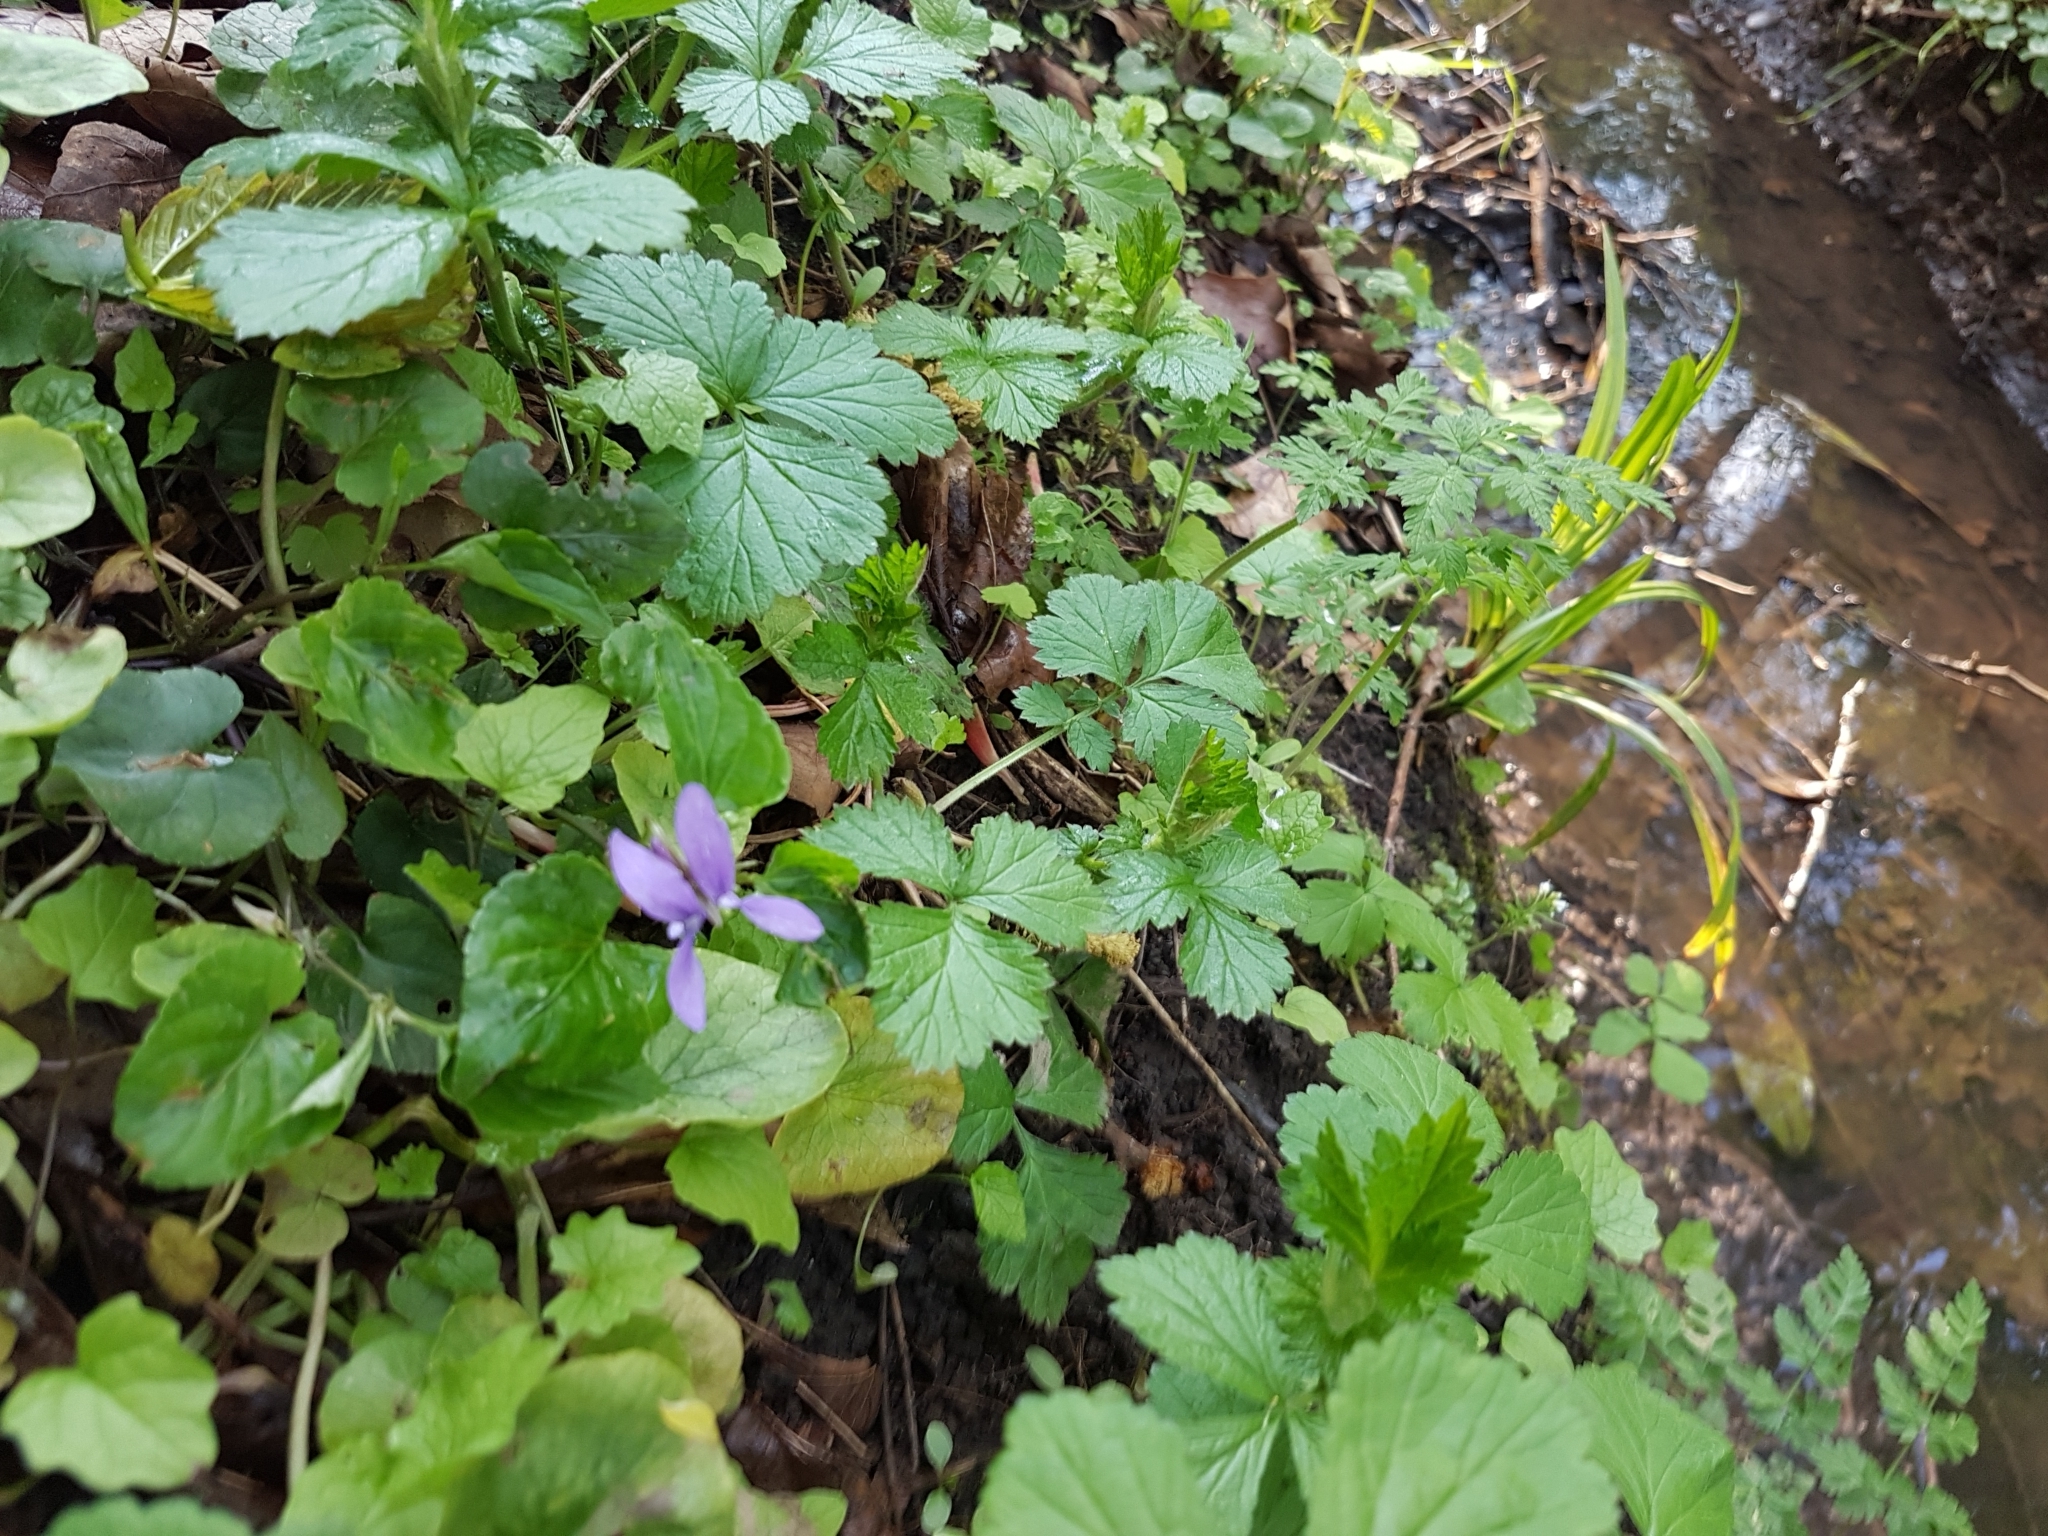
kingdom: Plantae
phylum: Tracheophyta
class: Magnoliopsida
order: Malpighiales
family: Violaceae
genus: Viola
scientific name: Viola riviniana
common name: Common dog-violet
